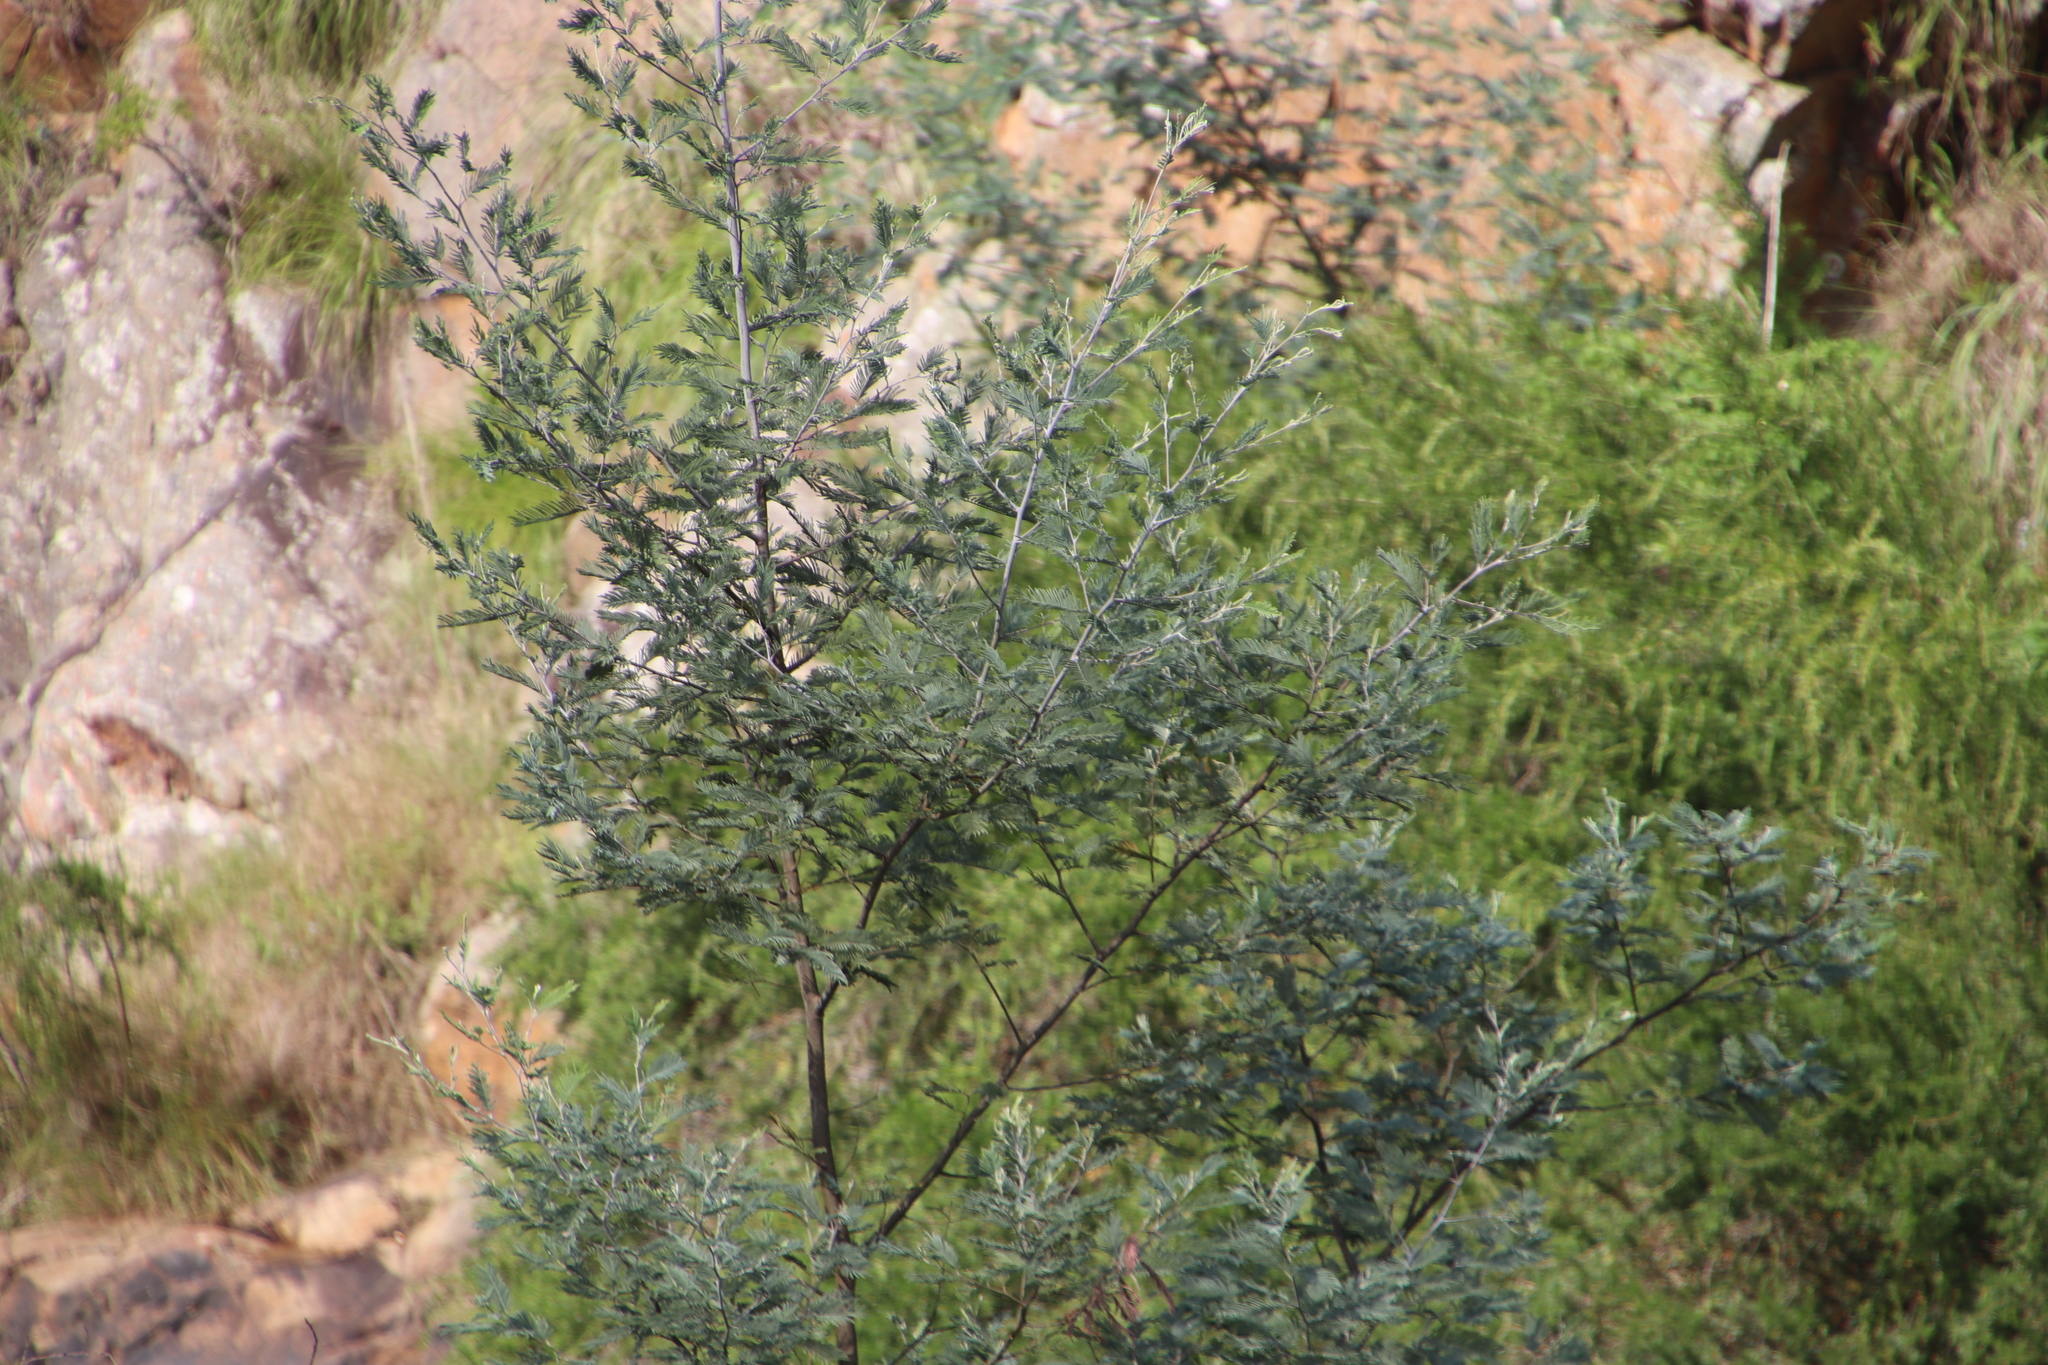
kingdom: Plantae
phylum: Tracheophyta
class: Magnoliopsida
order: Fabales
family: Fabaceae
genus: Acacia
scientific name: Acacia dealbata
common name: Silver wattle
